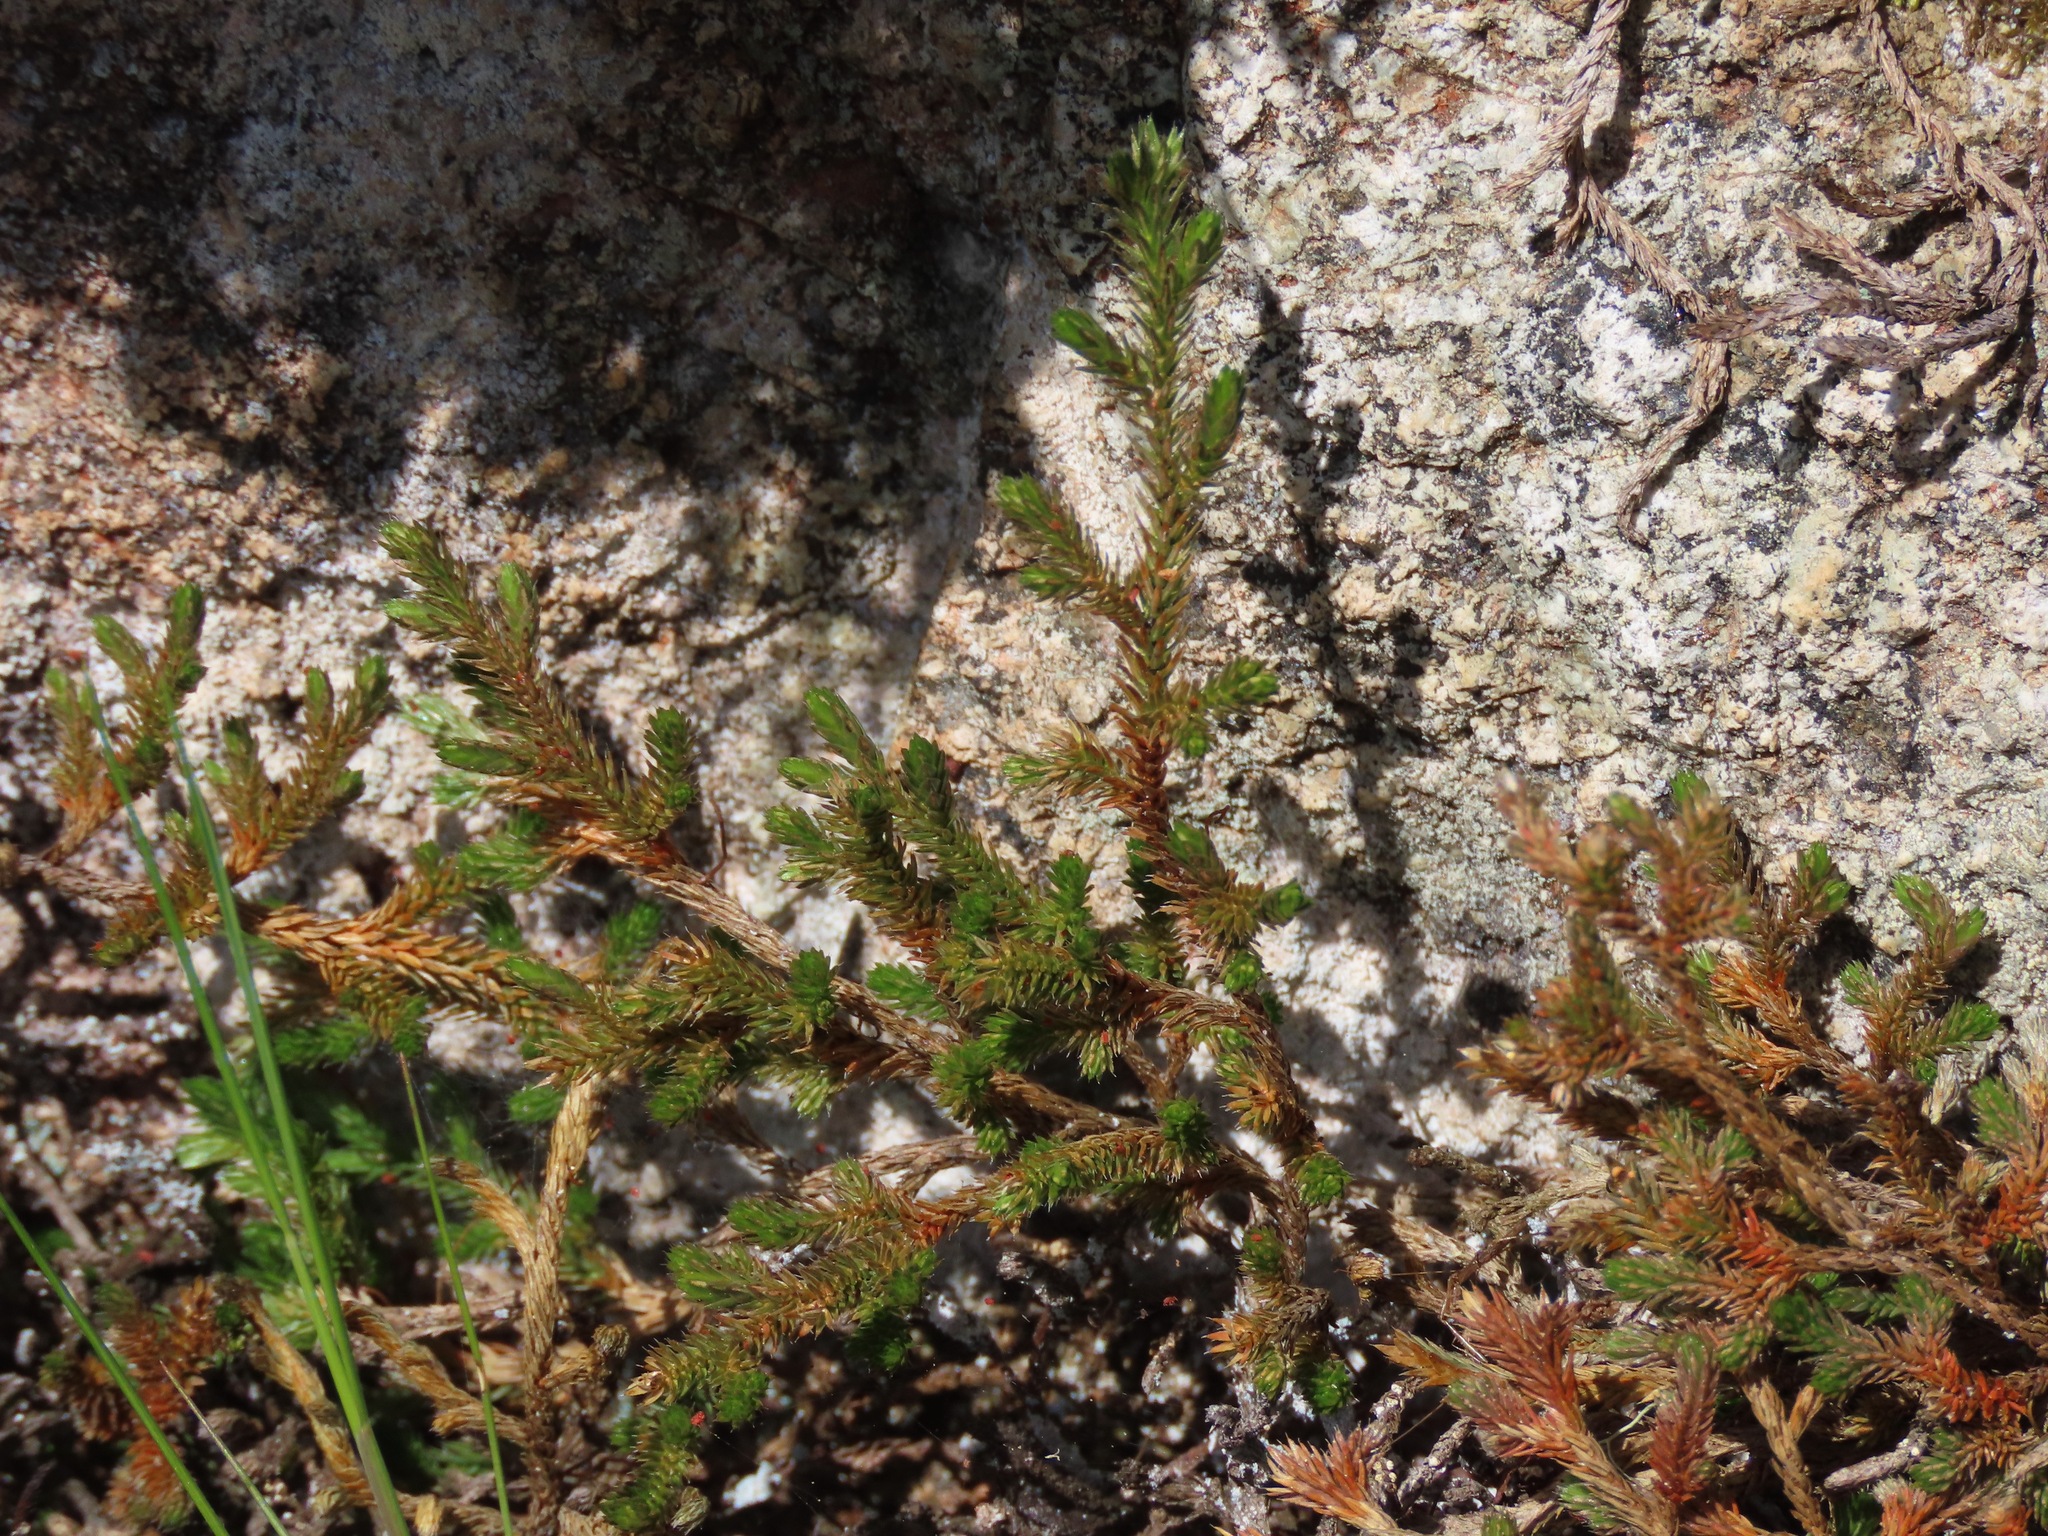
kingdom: Plantae
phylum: Tracheophyta
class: Lycopodiopsida
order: Selaginellales
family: Selaginellaceae
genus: Selaginella
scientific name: Selaginella wallacei
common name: Wallace's selaginella
